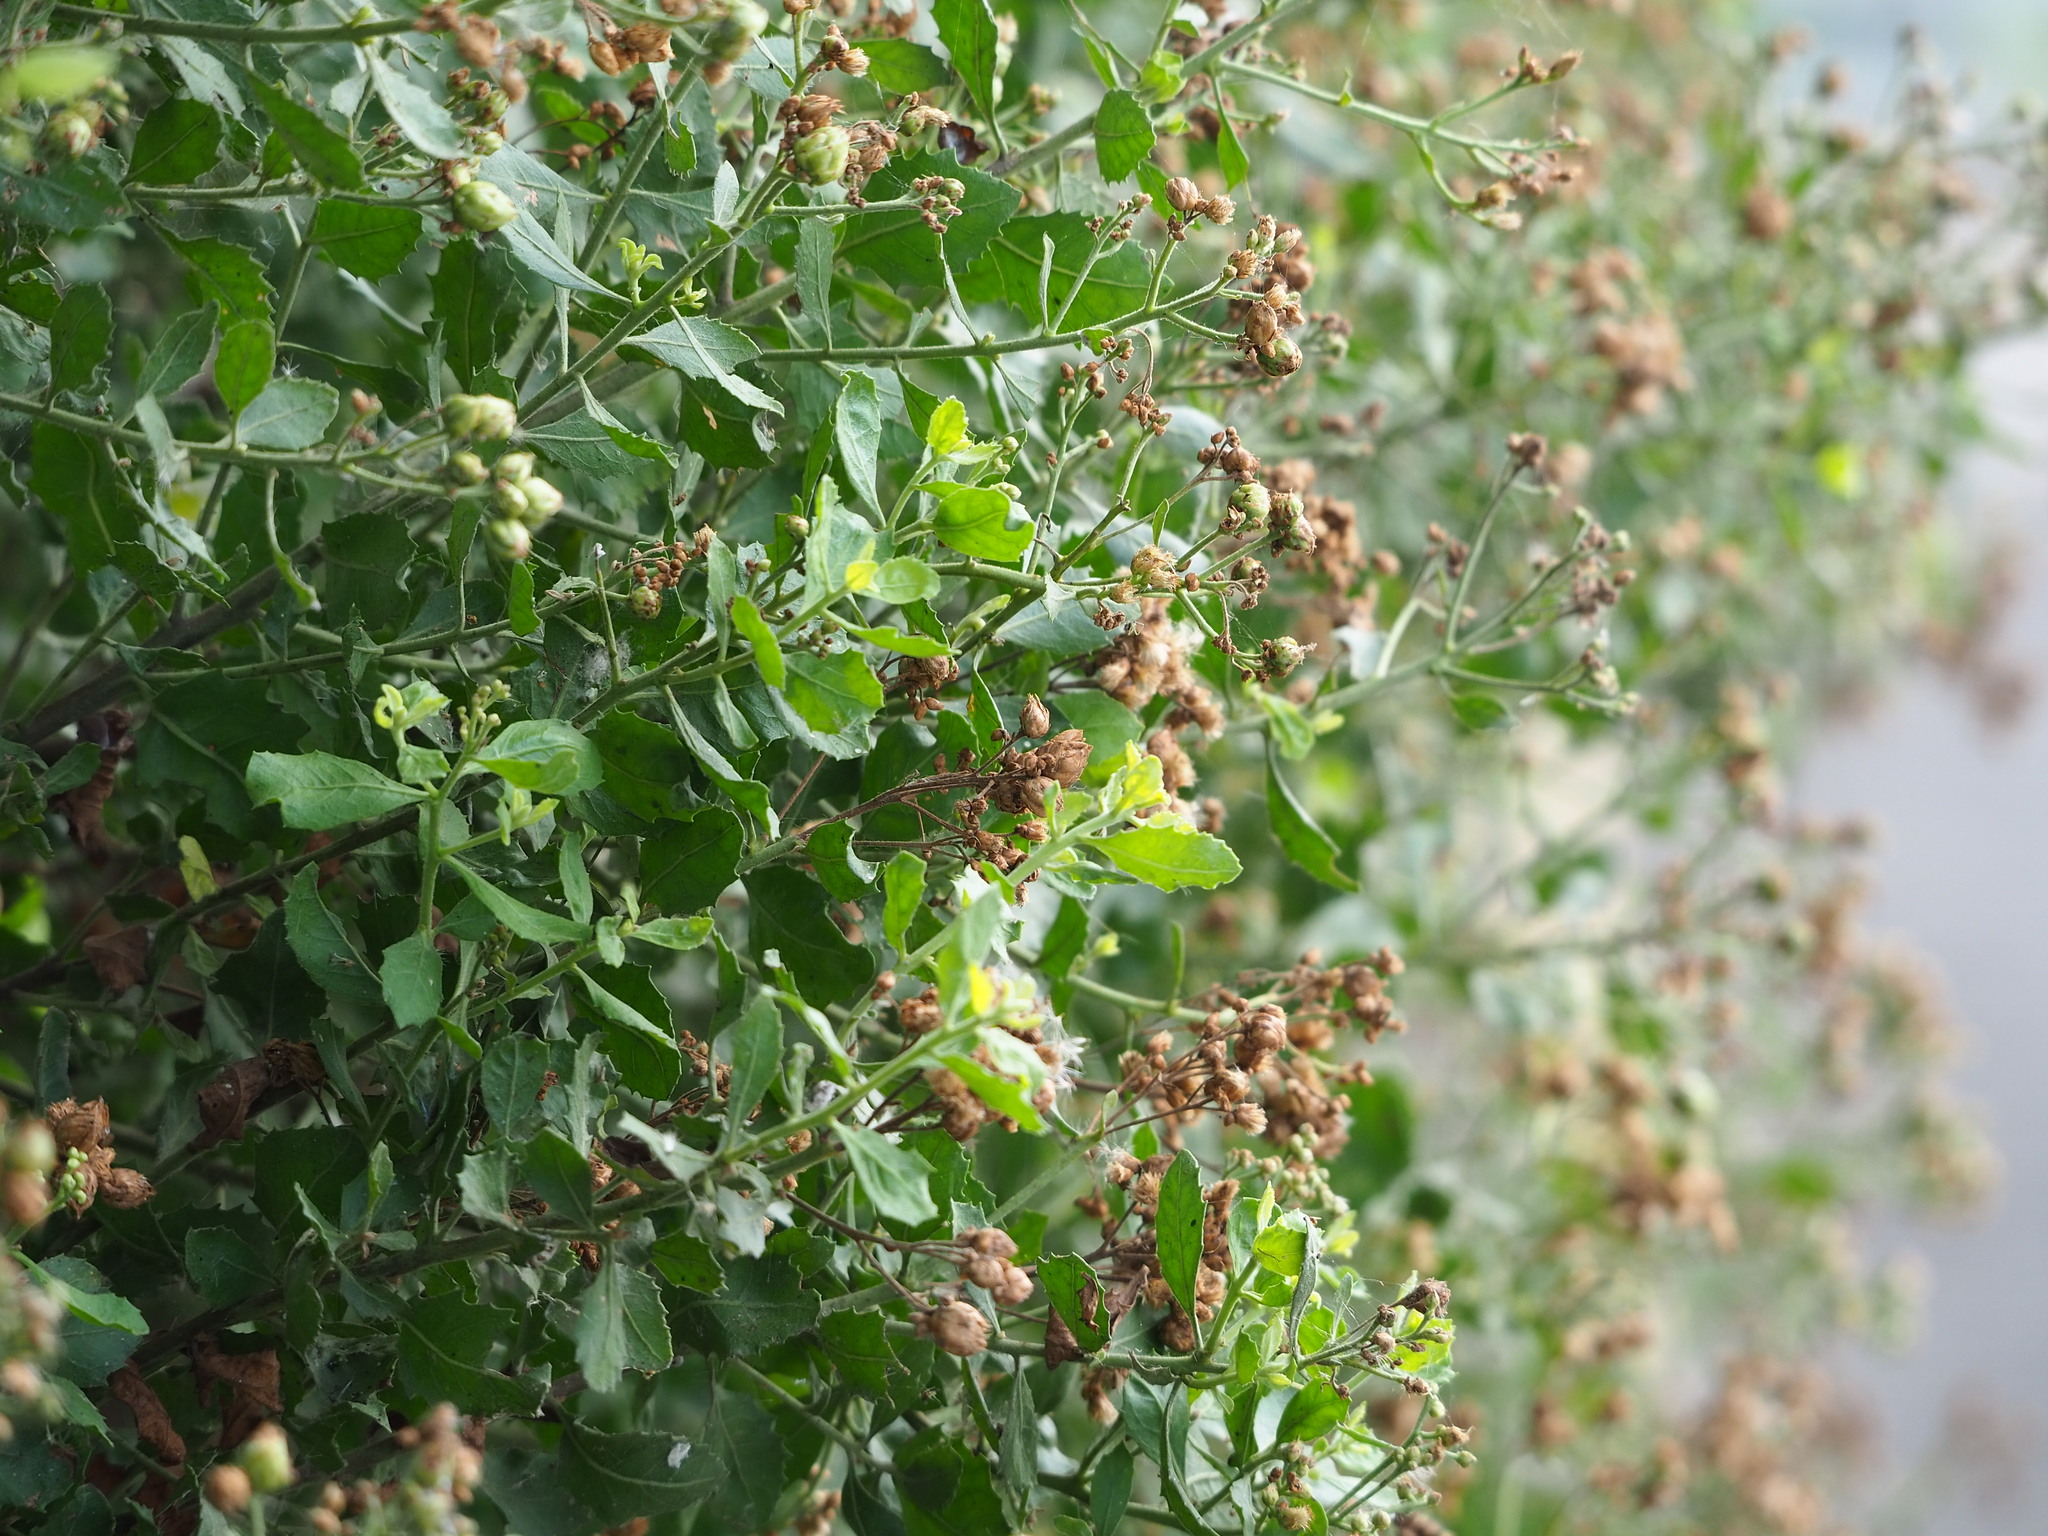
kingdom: Plantae
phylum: Tracheophyta
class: Magnoliopsida
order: Asterales
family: Asteraceae
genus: Pluchea
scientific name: Pluchea indica
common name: Indian fleabane
